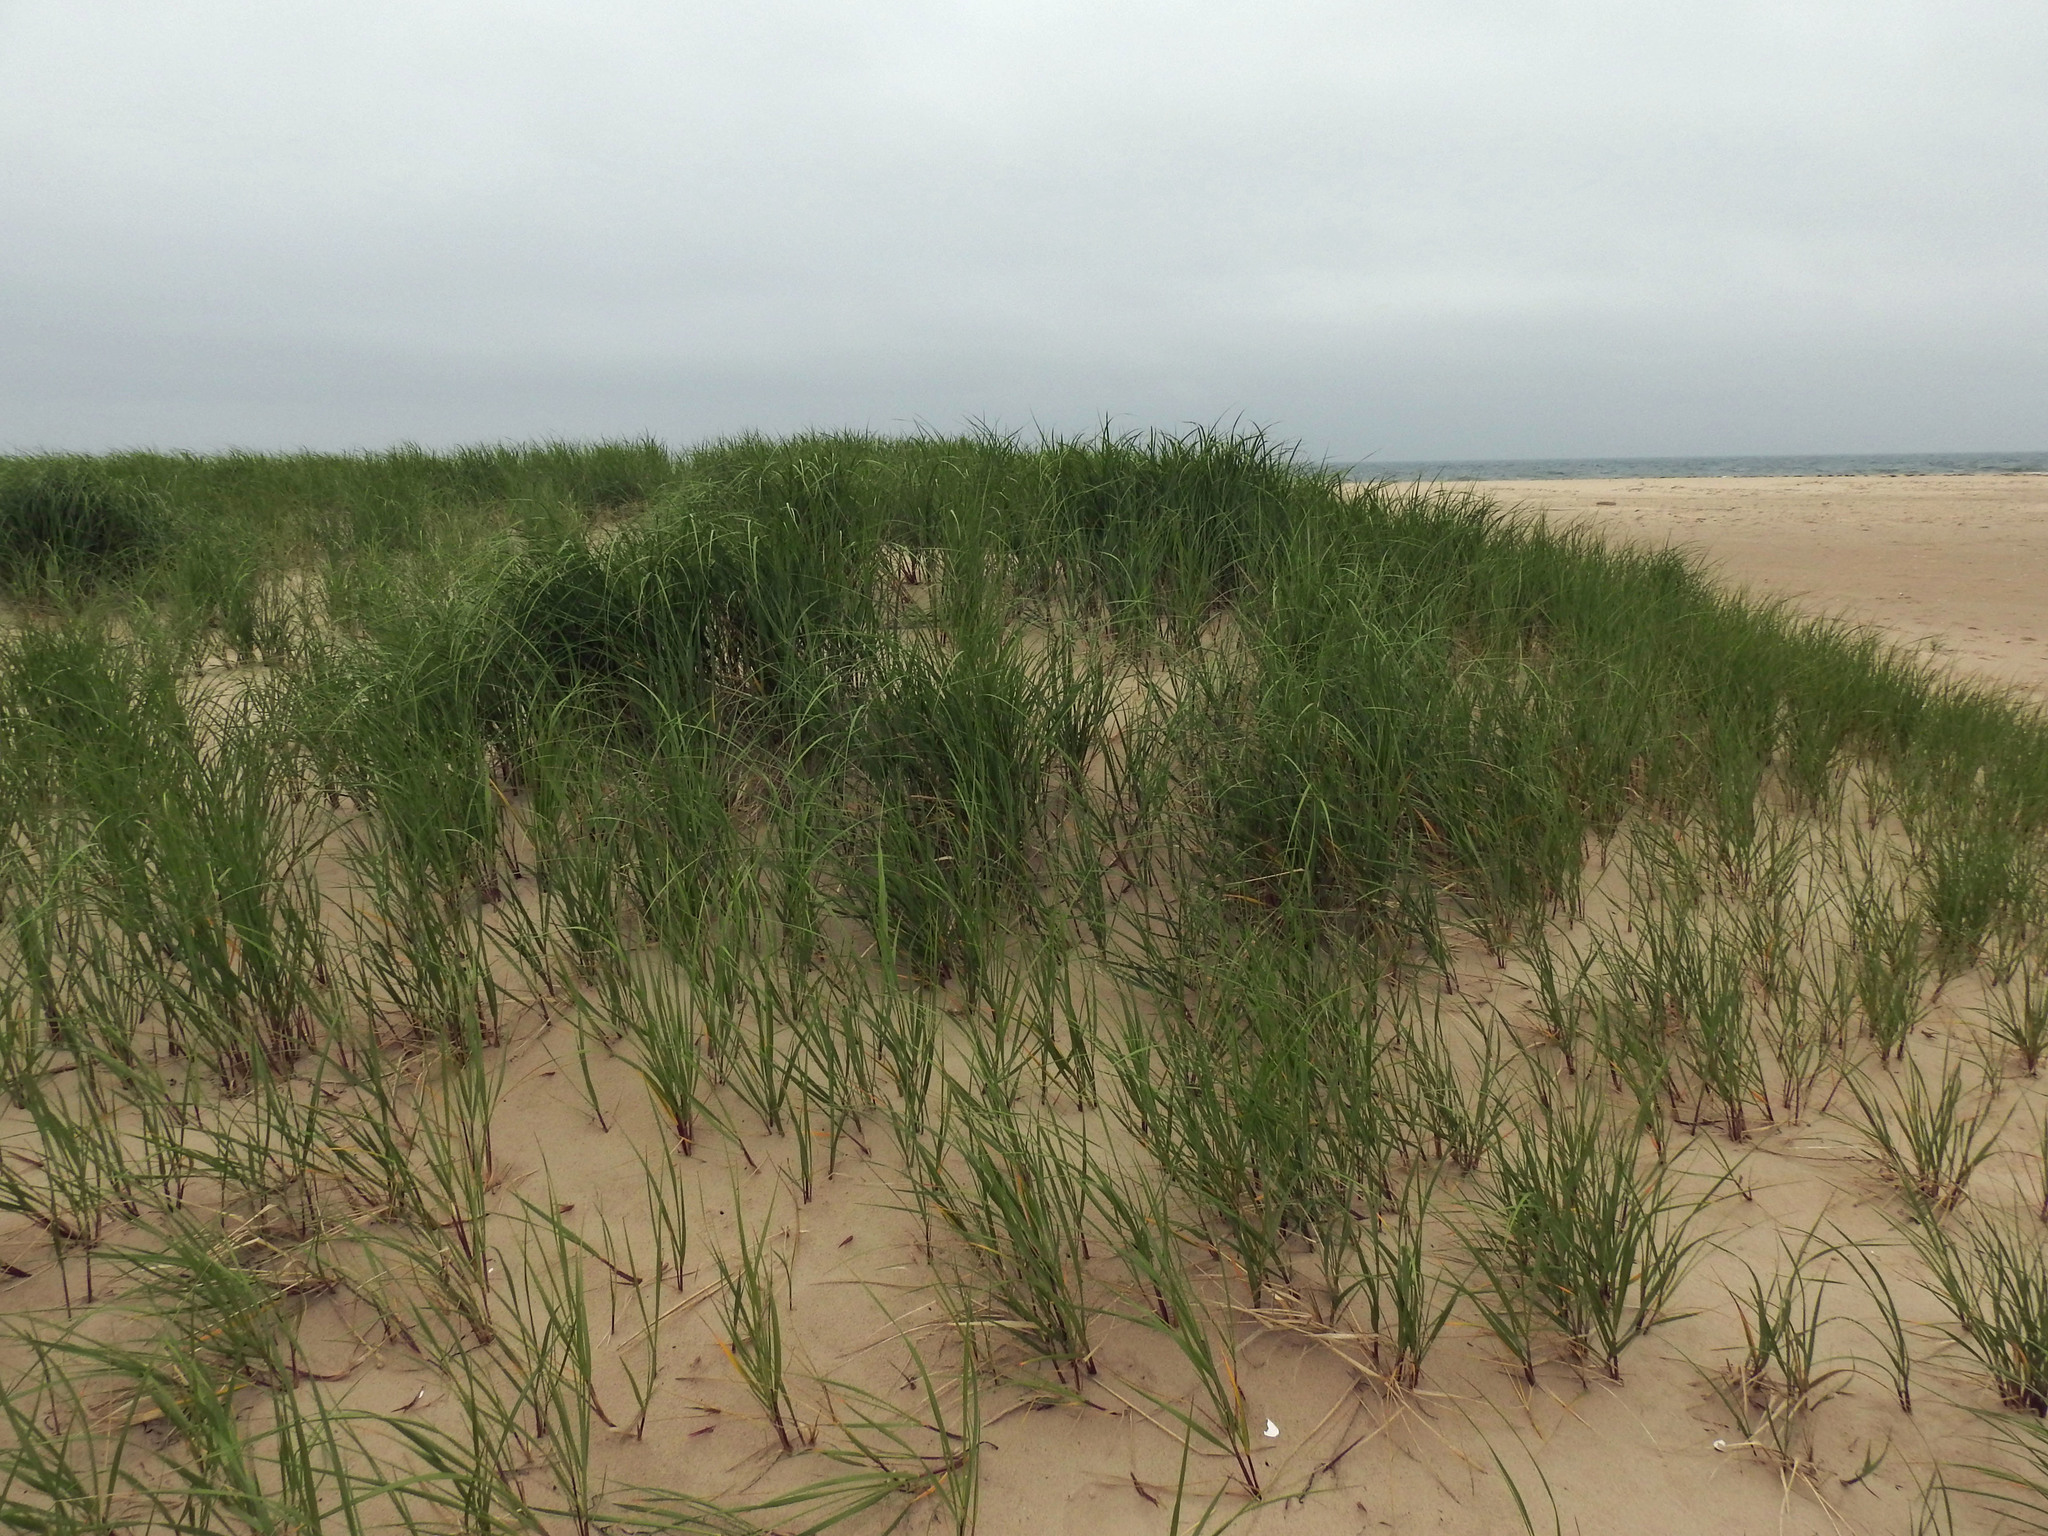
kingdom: Plantae
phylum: Tracheophyta
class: Liliopsida
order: Poales
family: Poaceae
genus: Calamagrostis
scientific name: Calamagrostis breviligulata
